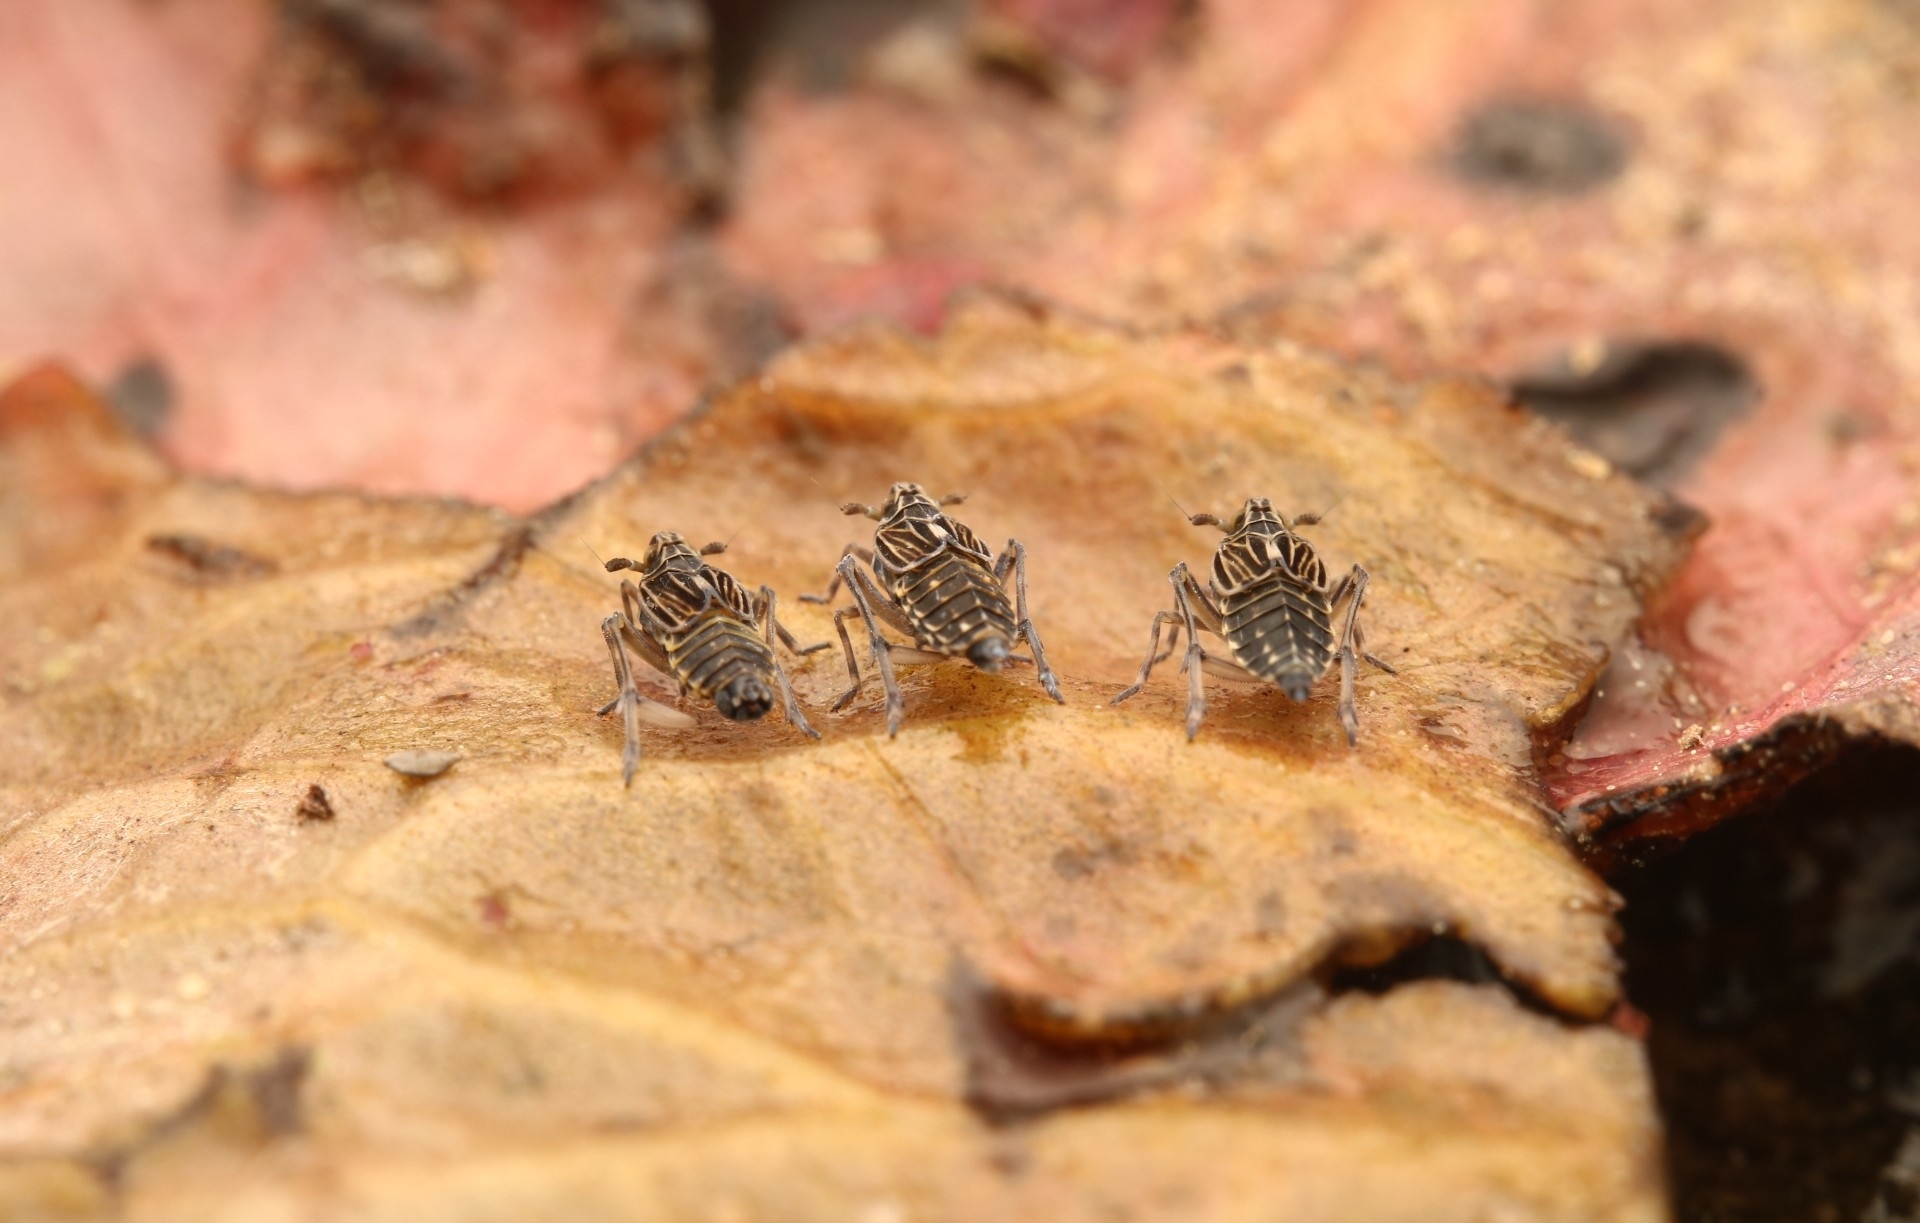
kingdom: Animalia
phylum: Arthropoda
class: Insecta
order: Hemiptera
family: Delphacidae
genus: Megamelus
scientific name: Megamelus davisi
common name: Planthopper
